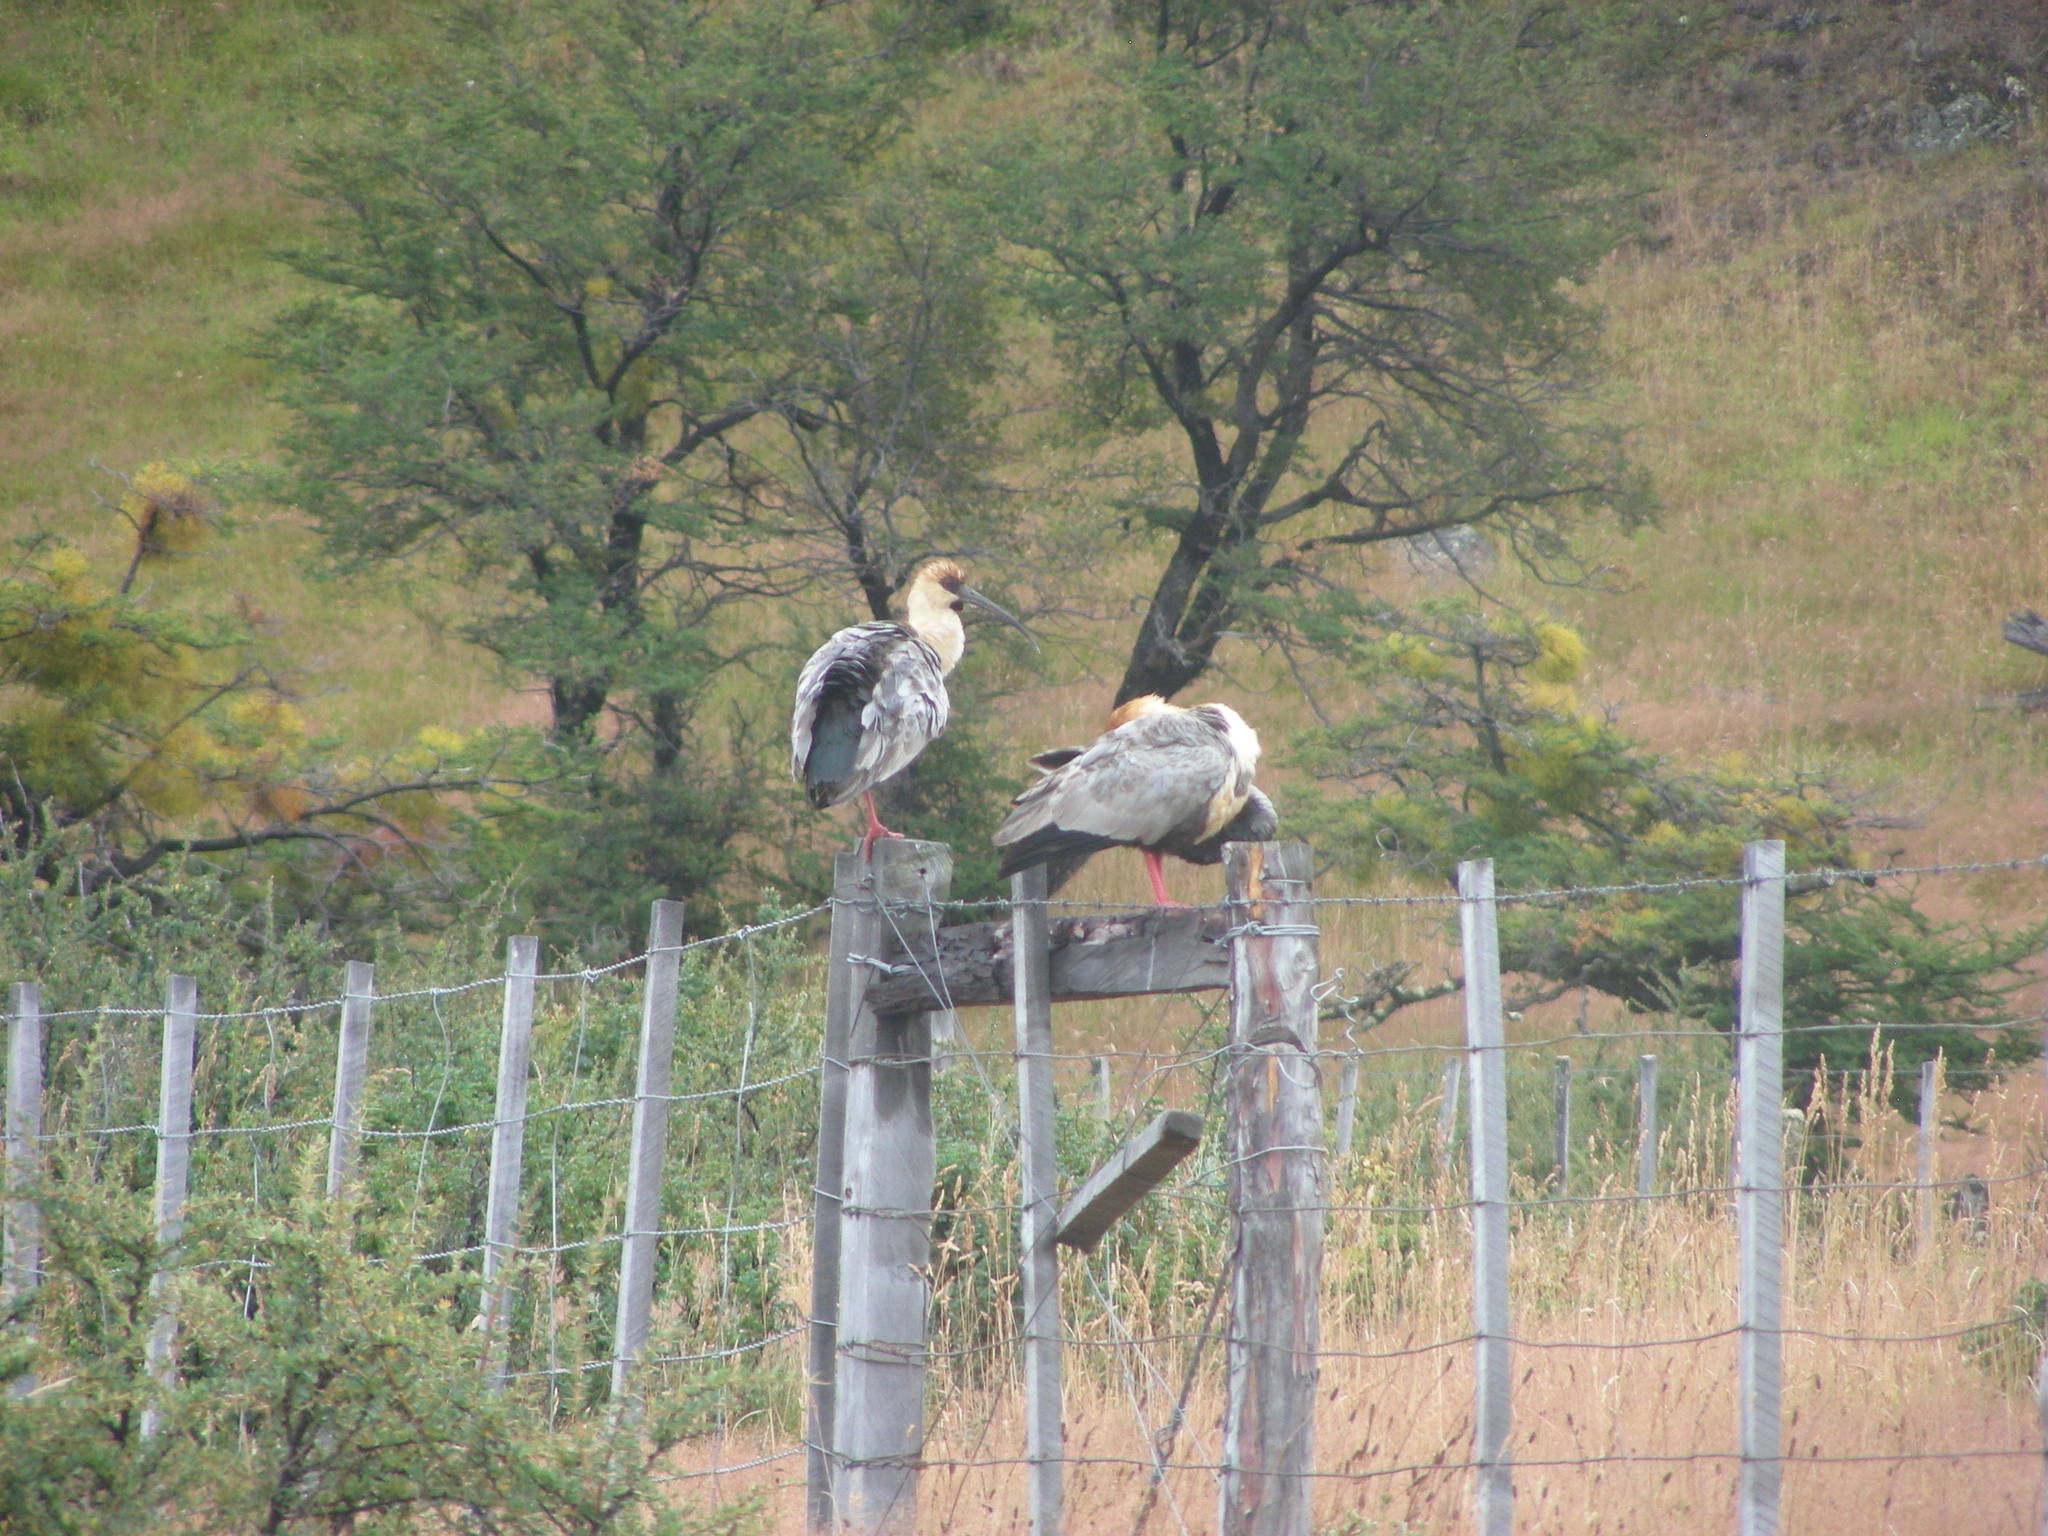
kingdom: Animalia
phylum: Chordata
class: Aves
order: Pelecaniformes
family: Threskiornithidae
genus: Theristicus
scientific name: Theristicus melanopis
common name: Black-faced ibis
